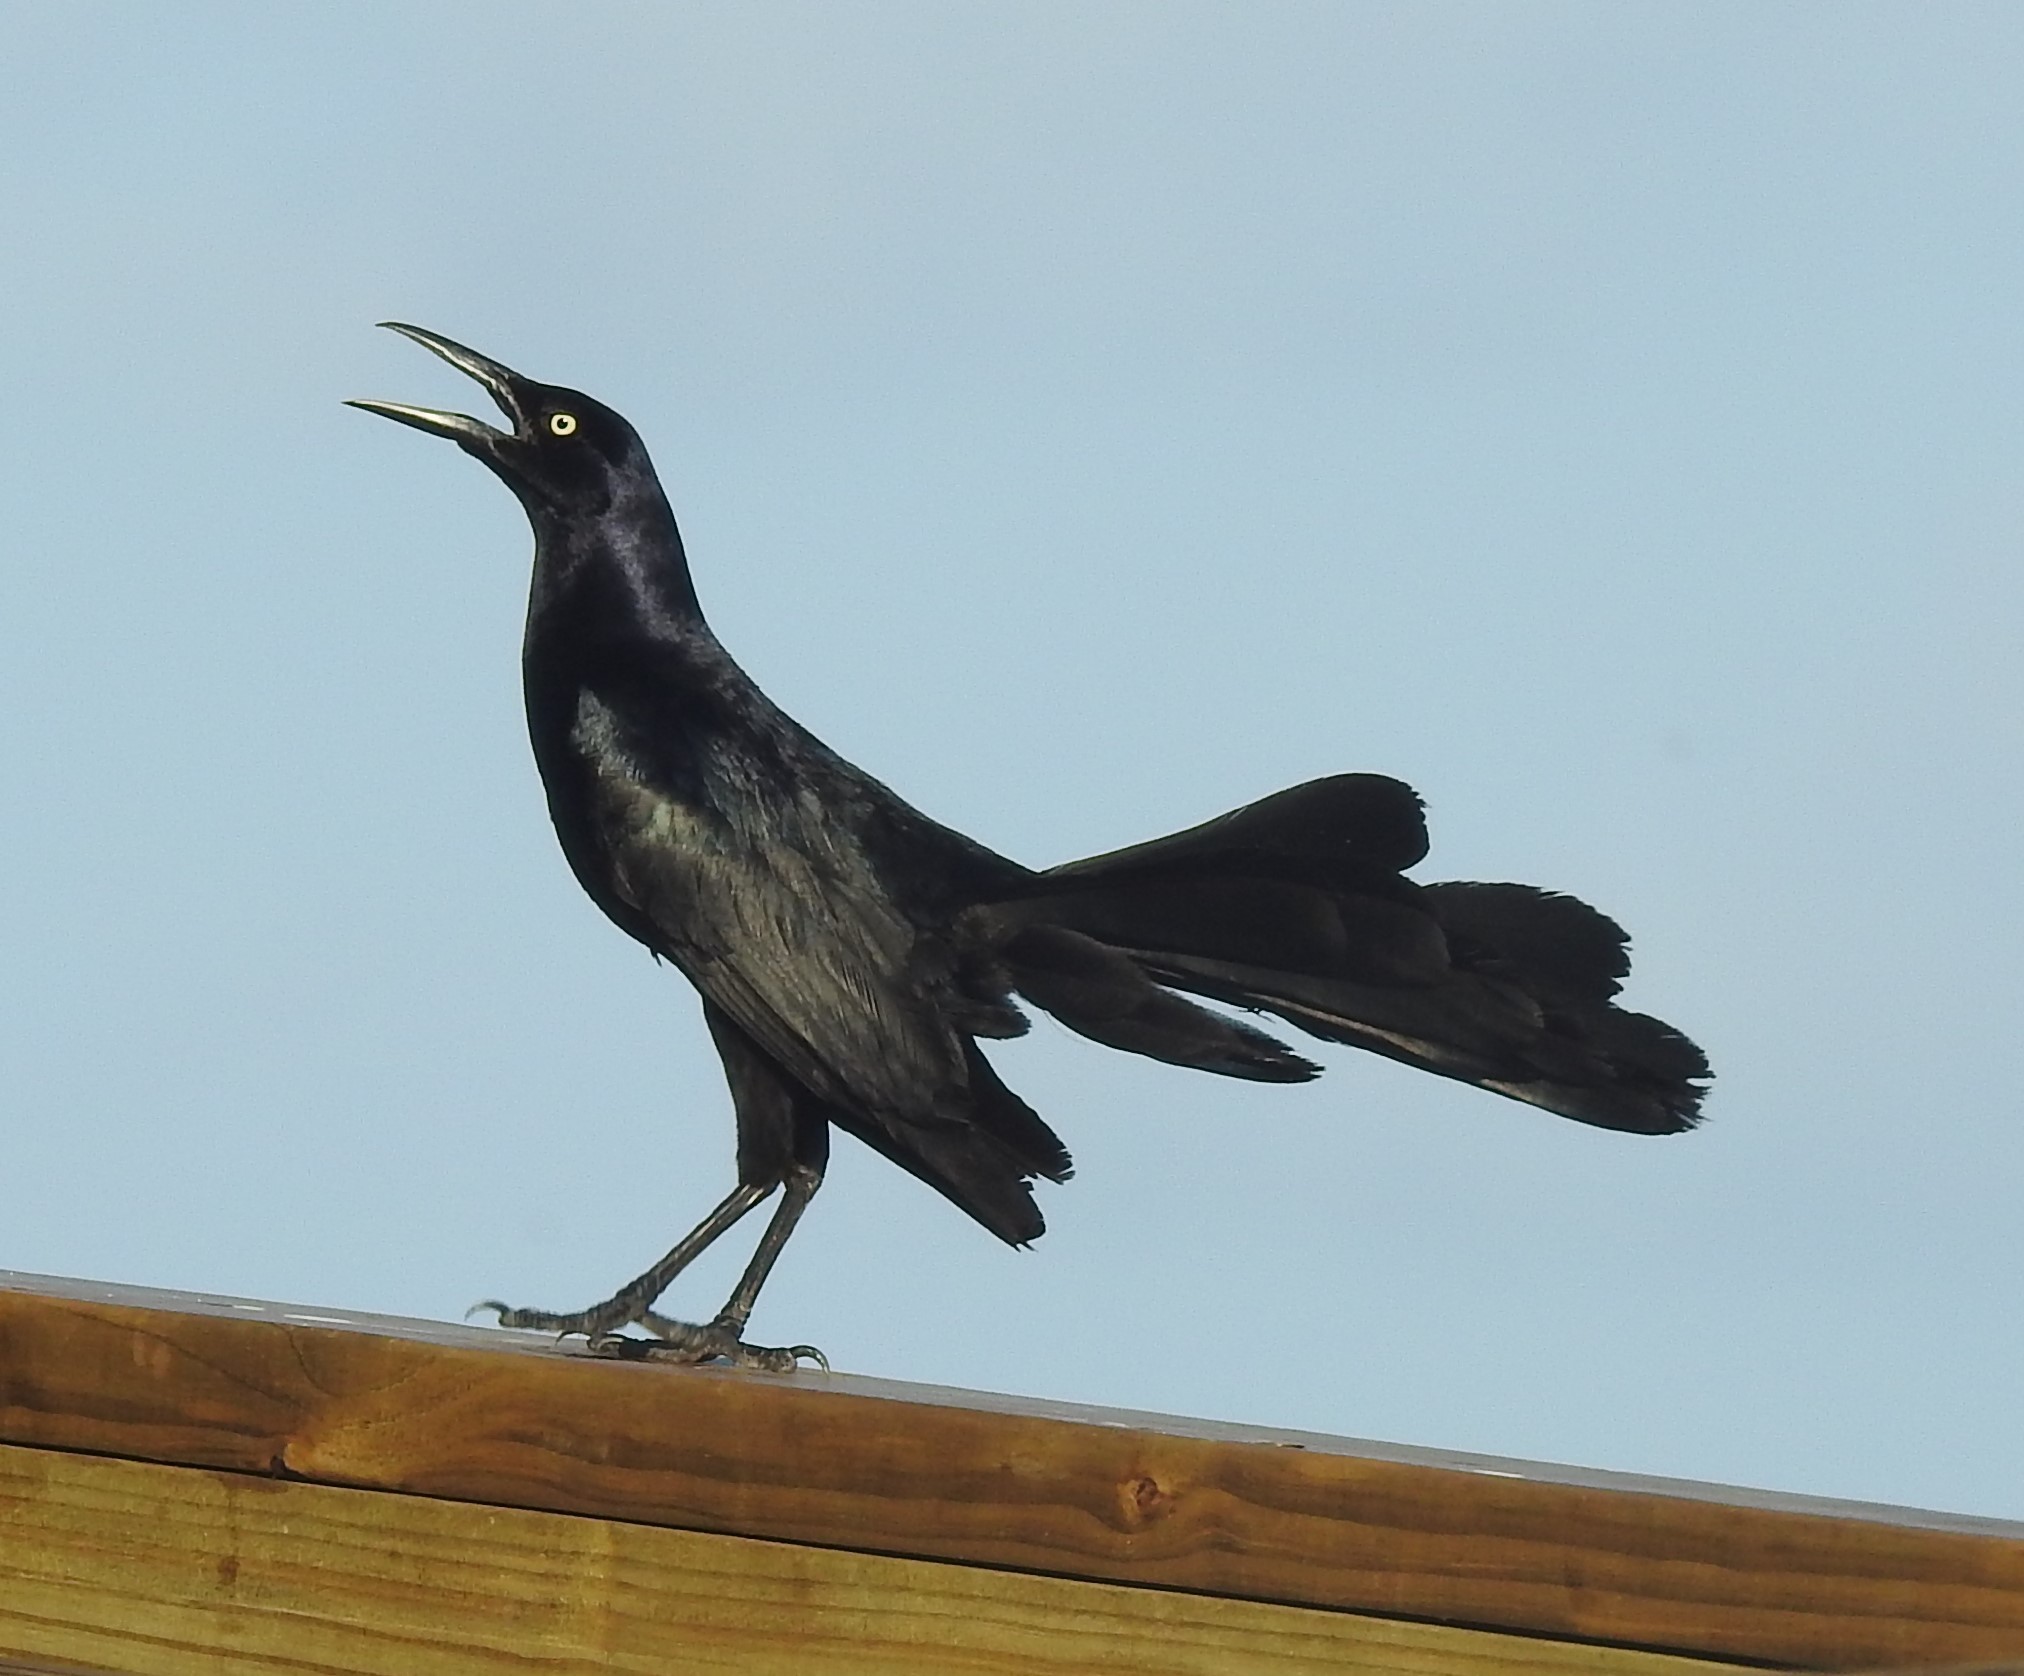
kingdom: Animalia
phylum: Chordata
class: Aves
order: Passeriformes
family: Icteridae
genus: Quiscalus
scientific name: Quiscalus mexicanus
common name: Great-tailed grackle
